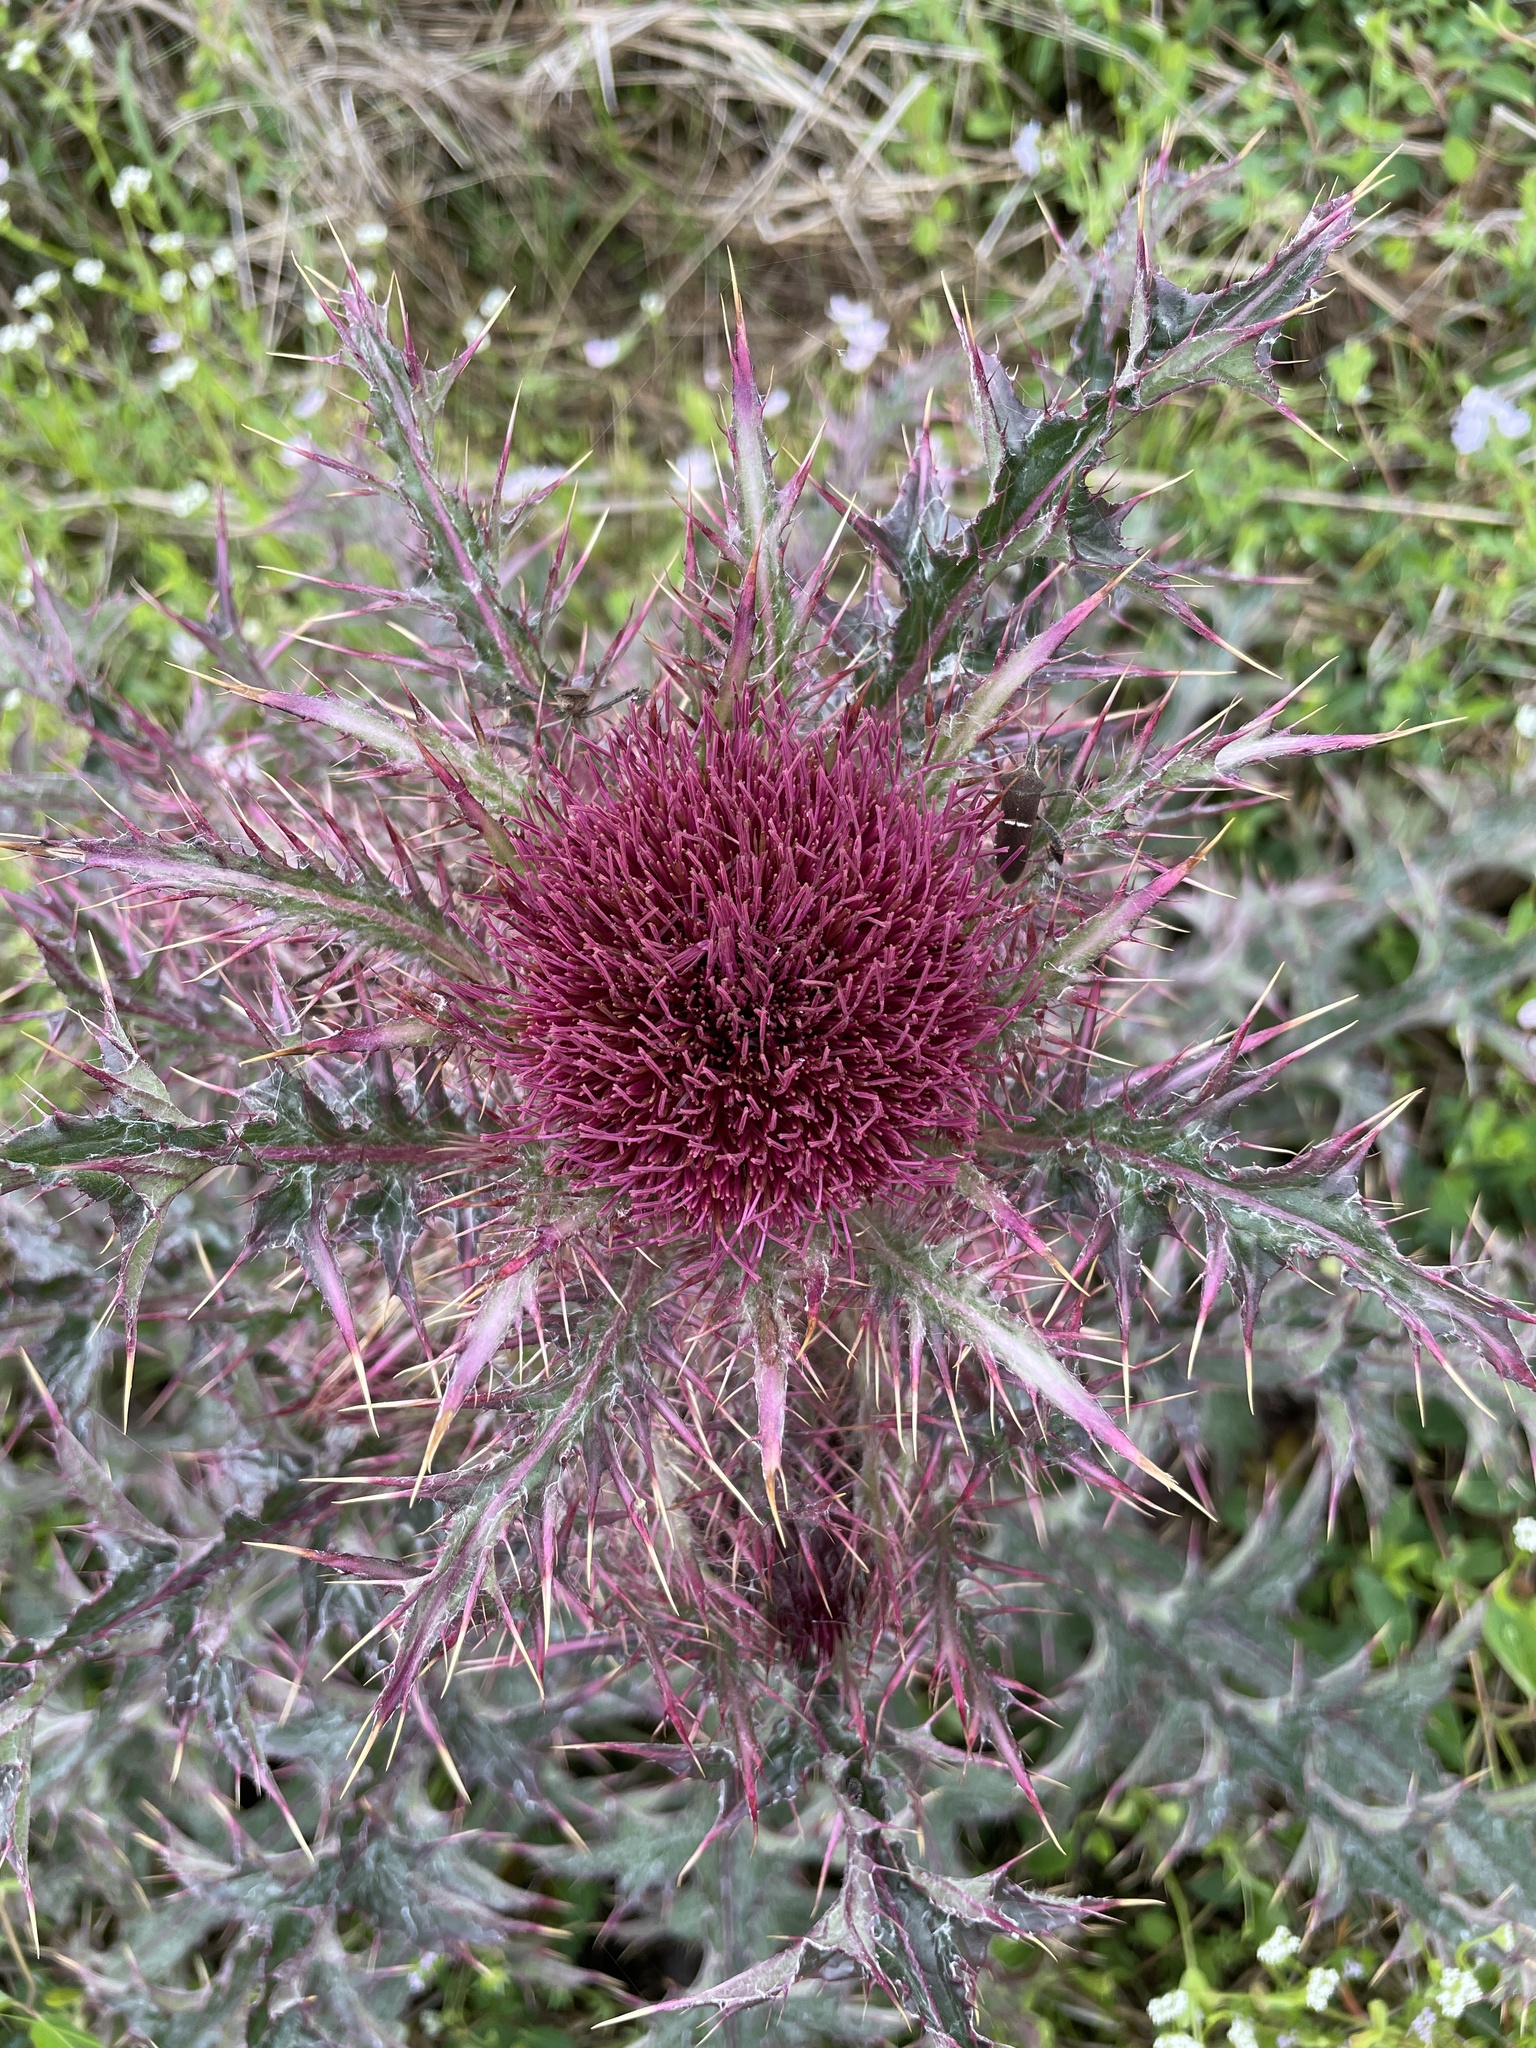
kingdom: Plantae
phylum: Tracheophyta
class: Magnoliopsida
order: Asterales
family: Asteraceae
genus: Cirsium
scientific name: Cirsium horridulum
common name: Bristly thistle
